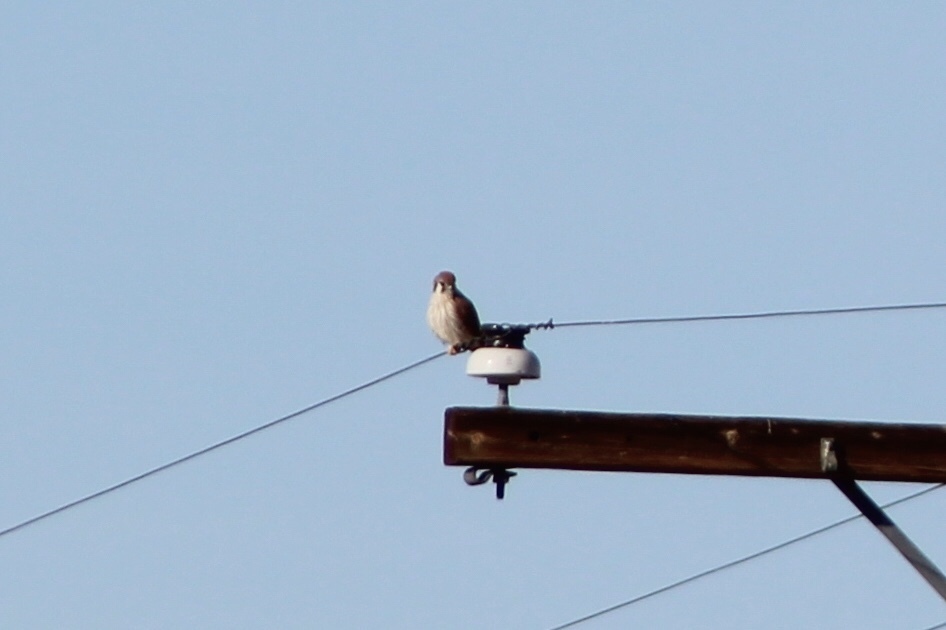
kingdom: Animalia
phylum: Chordata
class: Aves
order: Falconiformes
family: Falconidae
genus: Falco
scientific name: Falco sparverius
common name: American kestrel
